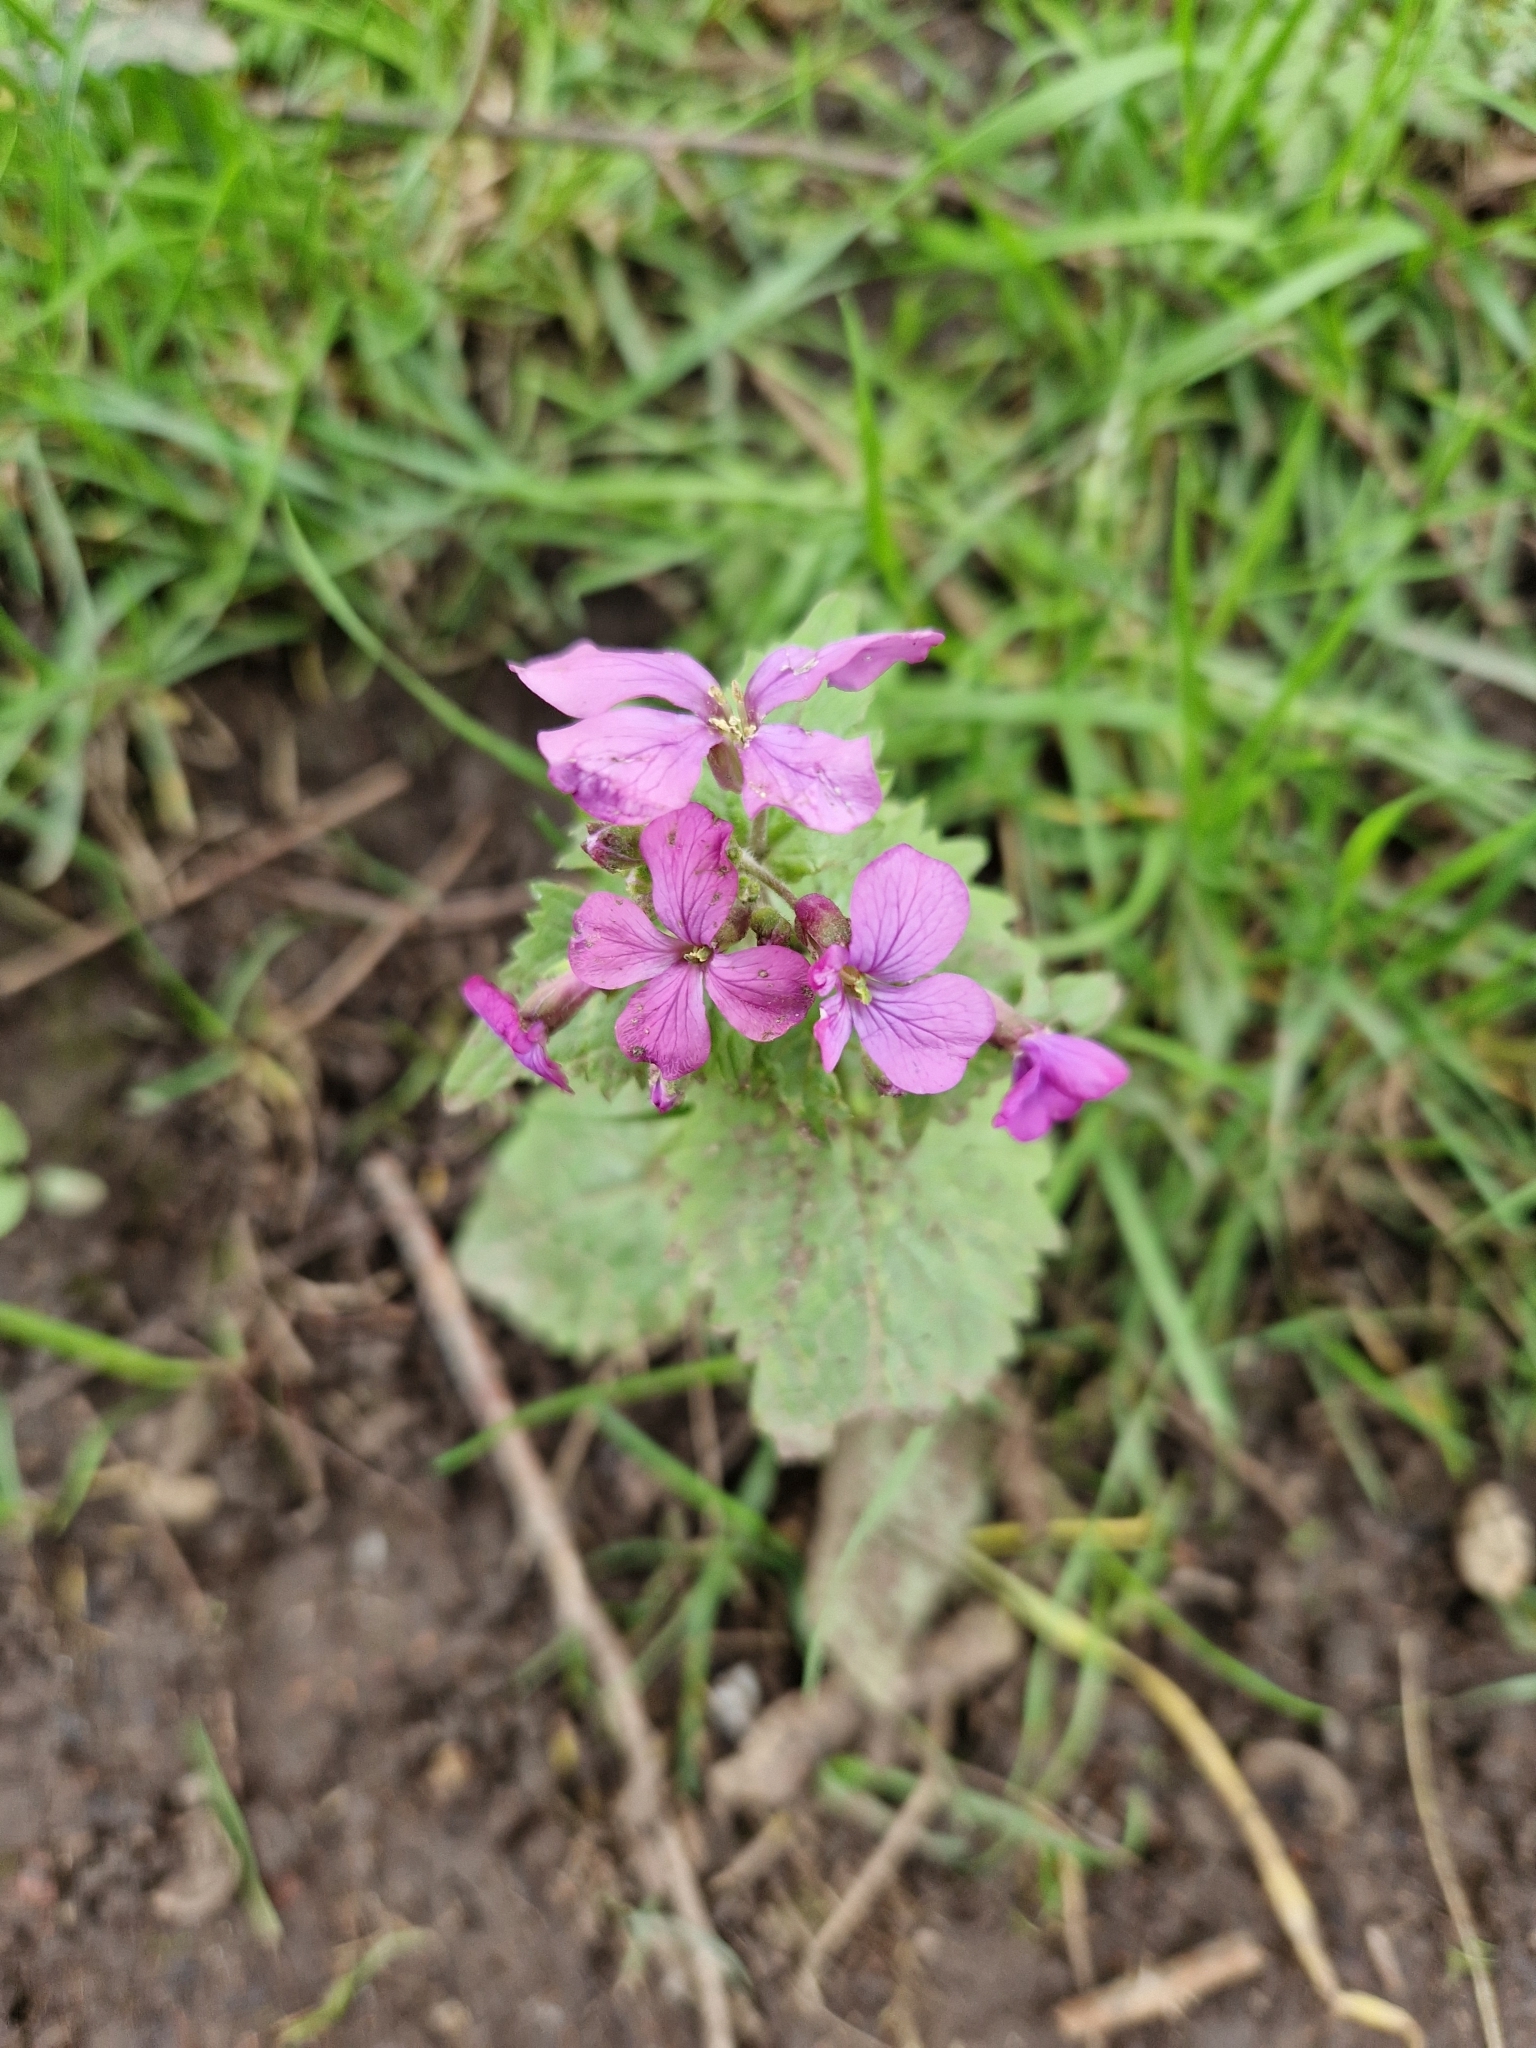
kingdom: Plantae
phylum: Tracheophyta
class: Magnoliopsida
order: Brassicales
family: Brassicaceae
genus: Lunaria
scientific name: Lunaria annua
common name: Honesty
